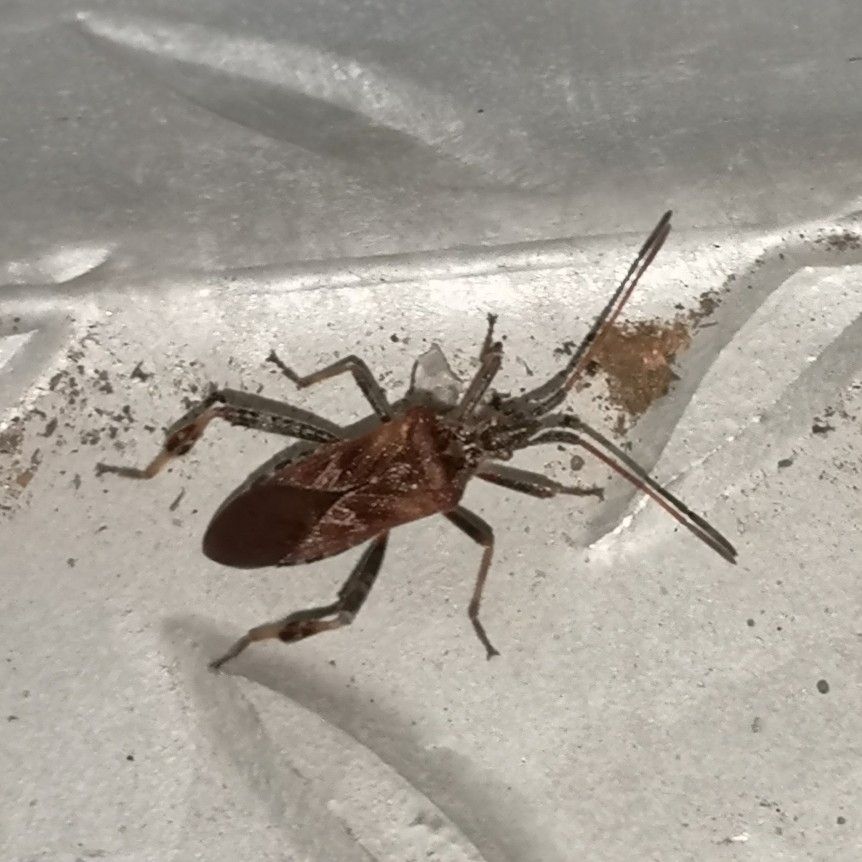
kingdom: Animalia
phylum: Arthropoda
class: Insecta
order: Hemiptera
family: Coreidae
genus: Leptoglossus
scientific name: Leptoglossus occidentalis
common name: Western conifer-seed bug
